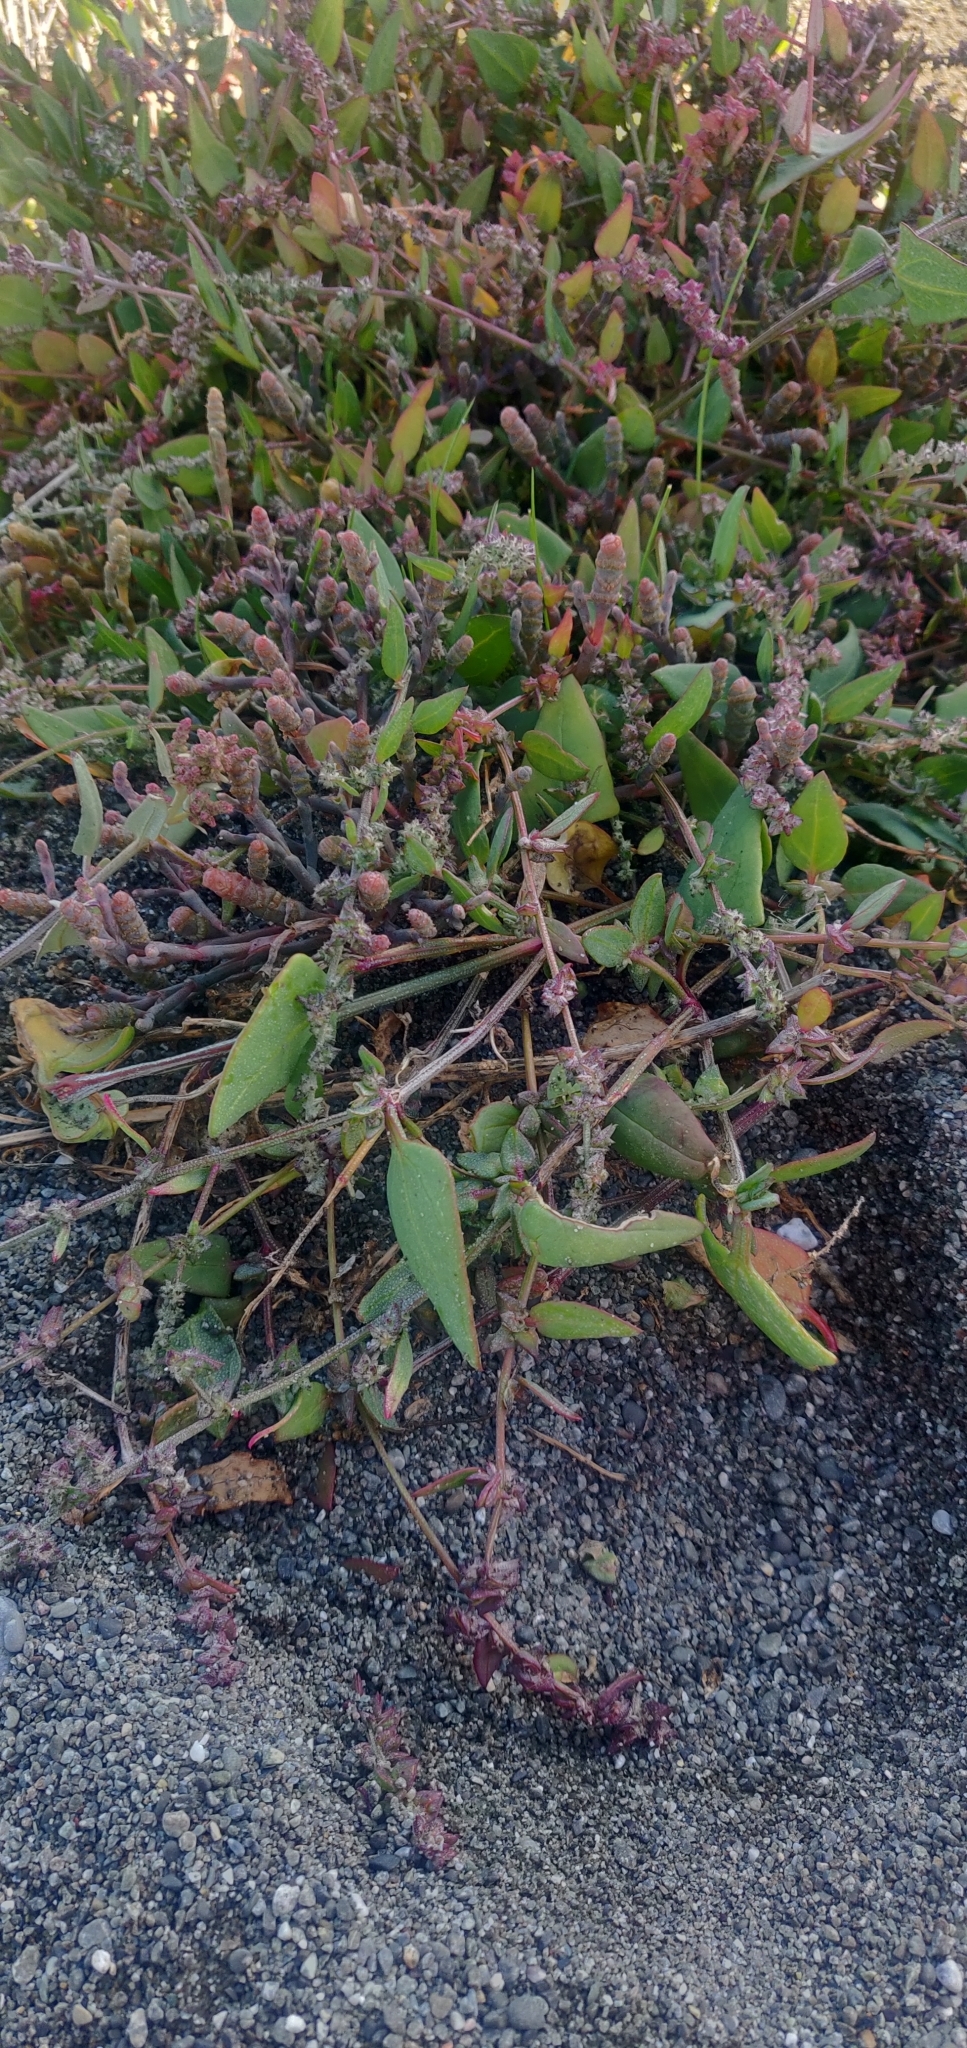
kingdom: Plantae
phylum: Tracheophyta
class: Magnoliopsida
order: Caryophyllales
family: Amaranthaceae
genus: Atriplex
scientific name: Atriplex prostrata
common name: Spear-leaved orache
